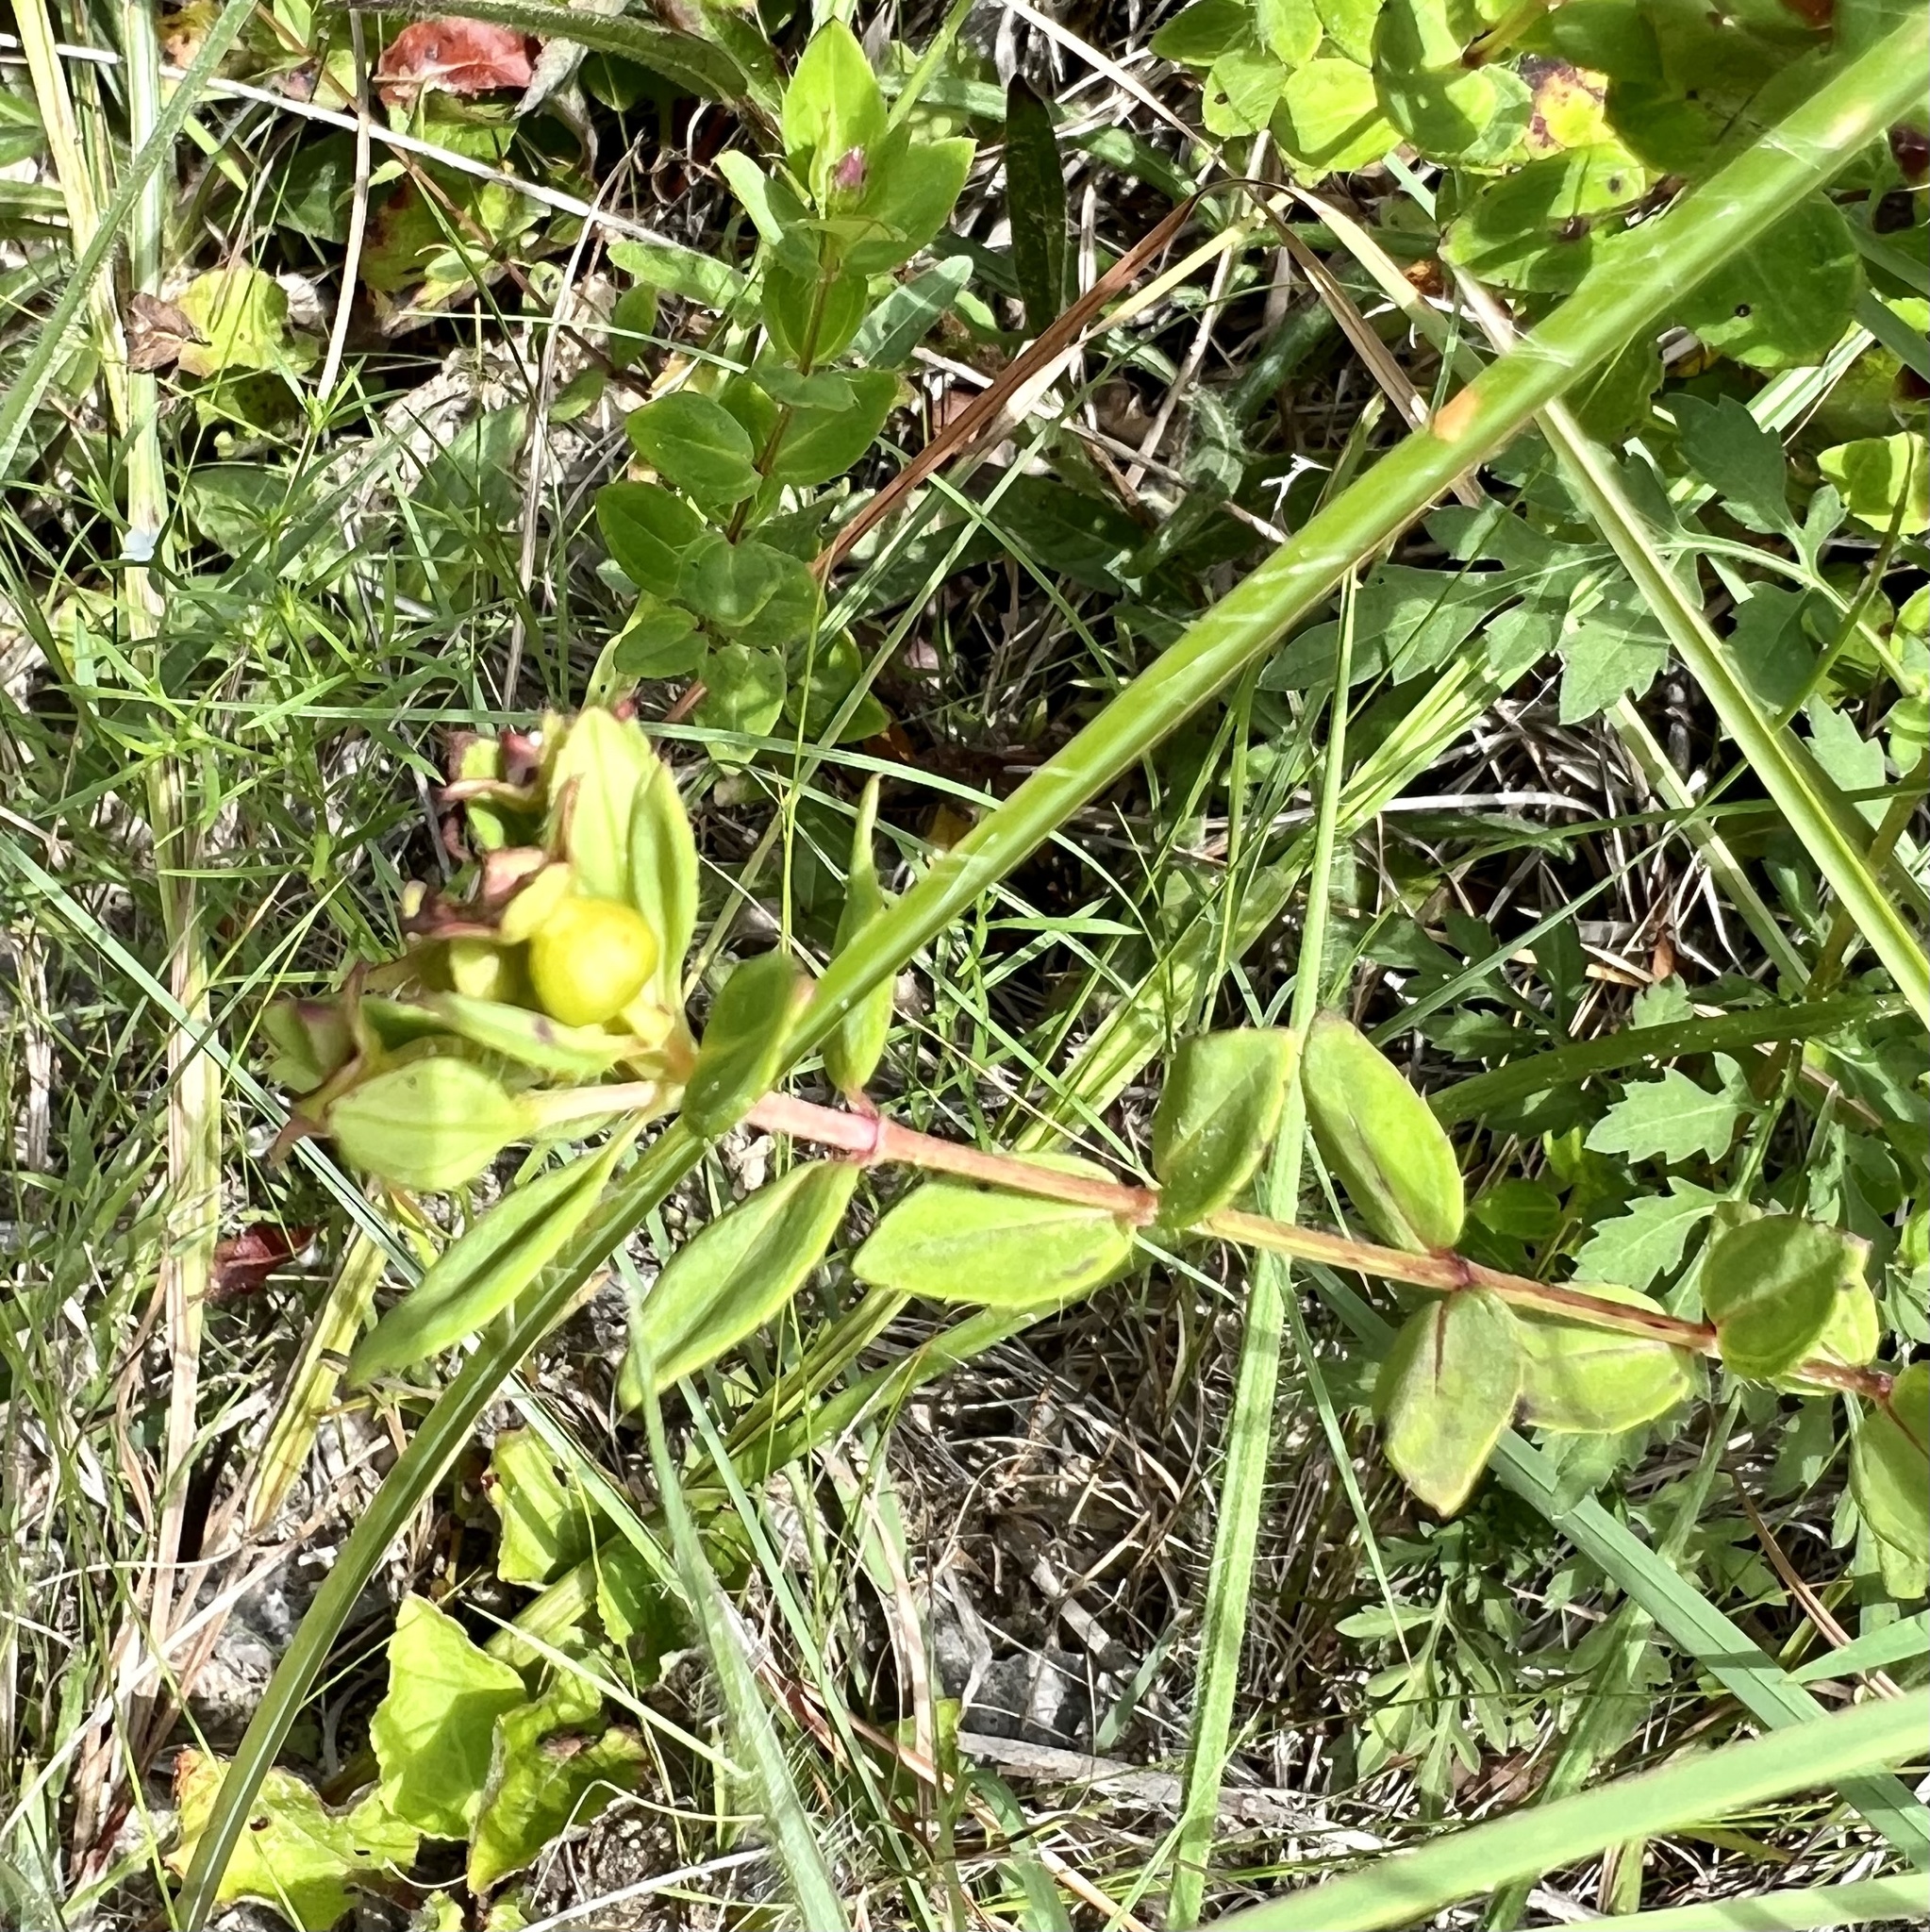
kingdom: Plantae
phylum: Tracheophyta
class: Magnoliopsida
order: Myrtales
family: Melastomataceae
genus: Rhexia
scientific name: Rhexia petiolata
